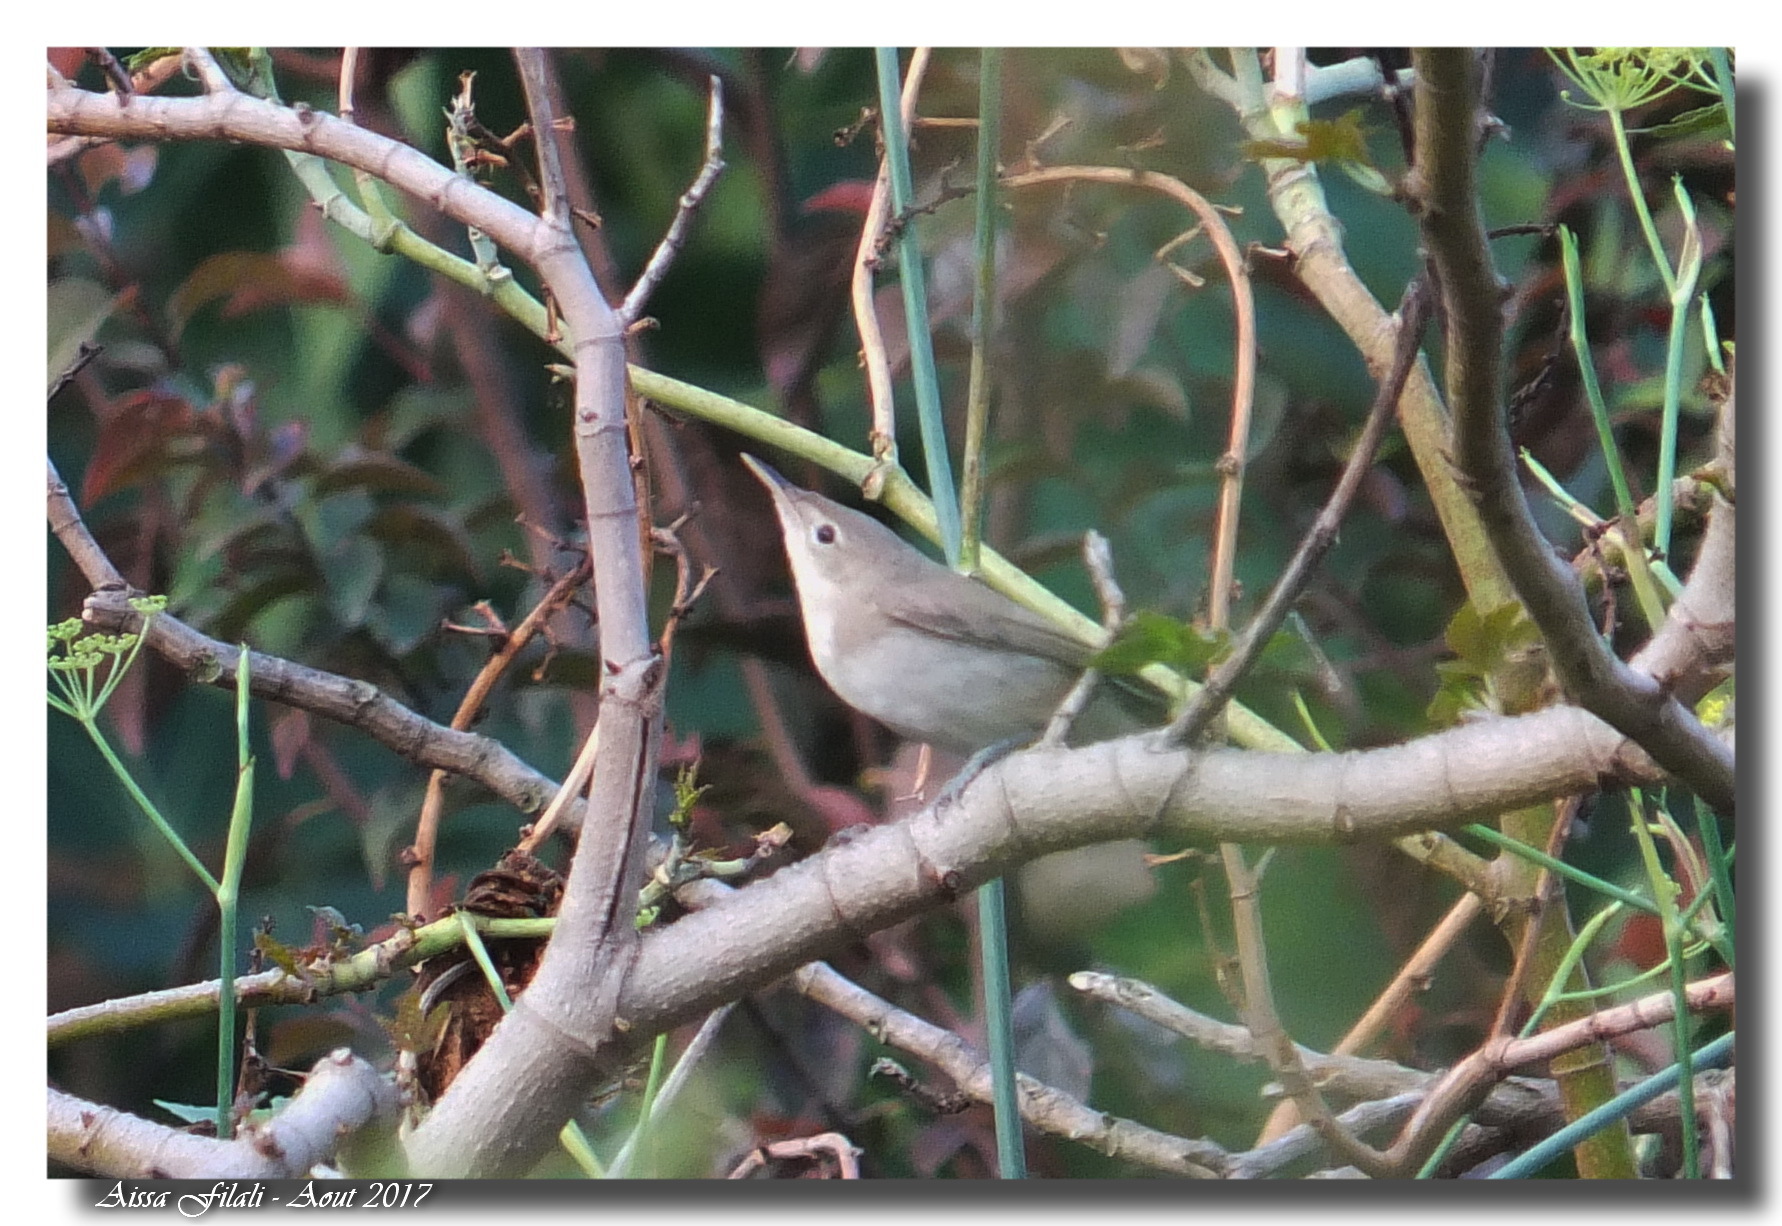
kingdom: Animalia
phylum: Chordata
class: Aves
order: Passeriformes
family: Acrocephalidae
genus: Iduna
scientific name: Iduna pallida
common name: Eastern olivaceous warbler
